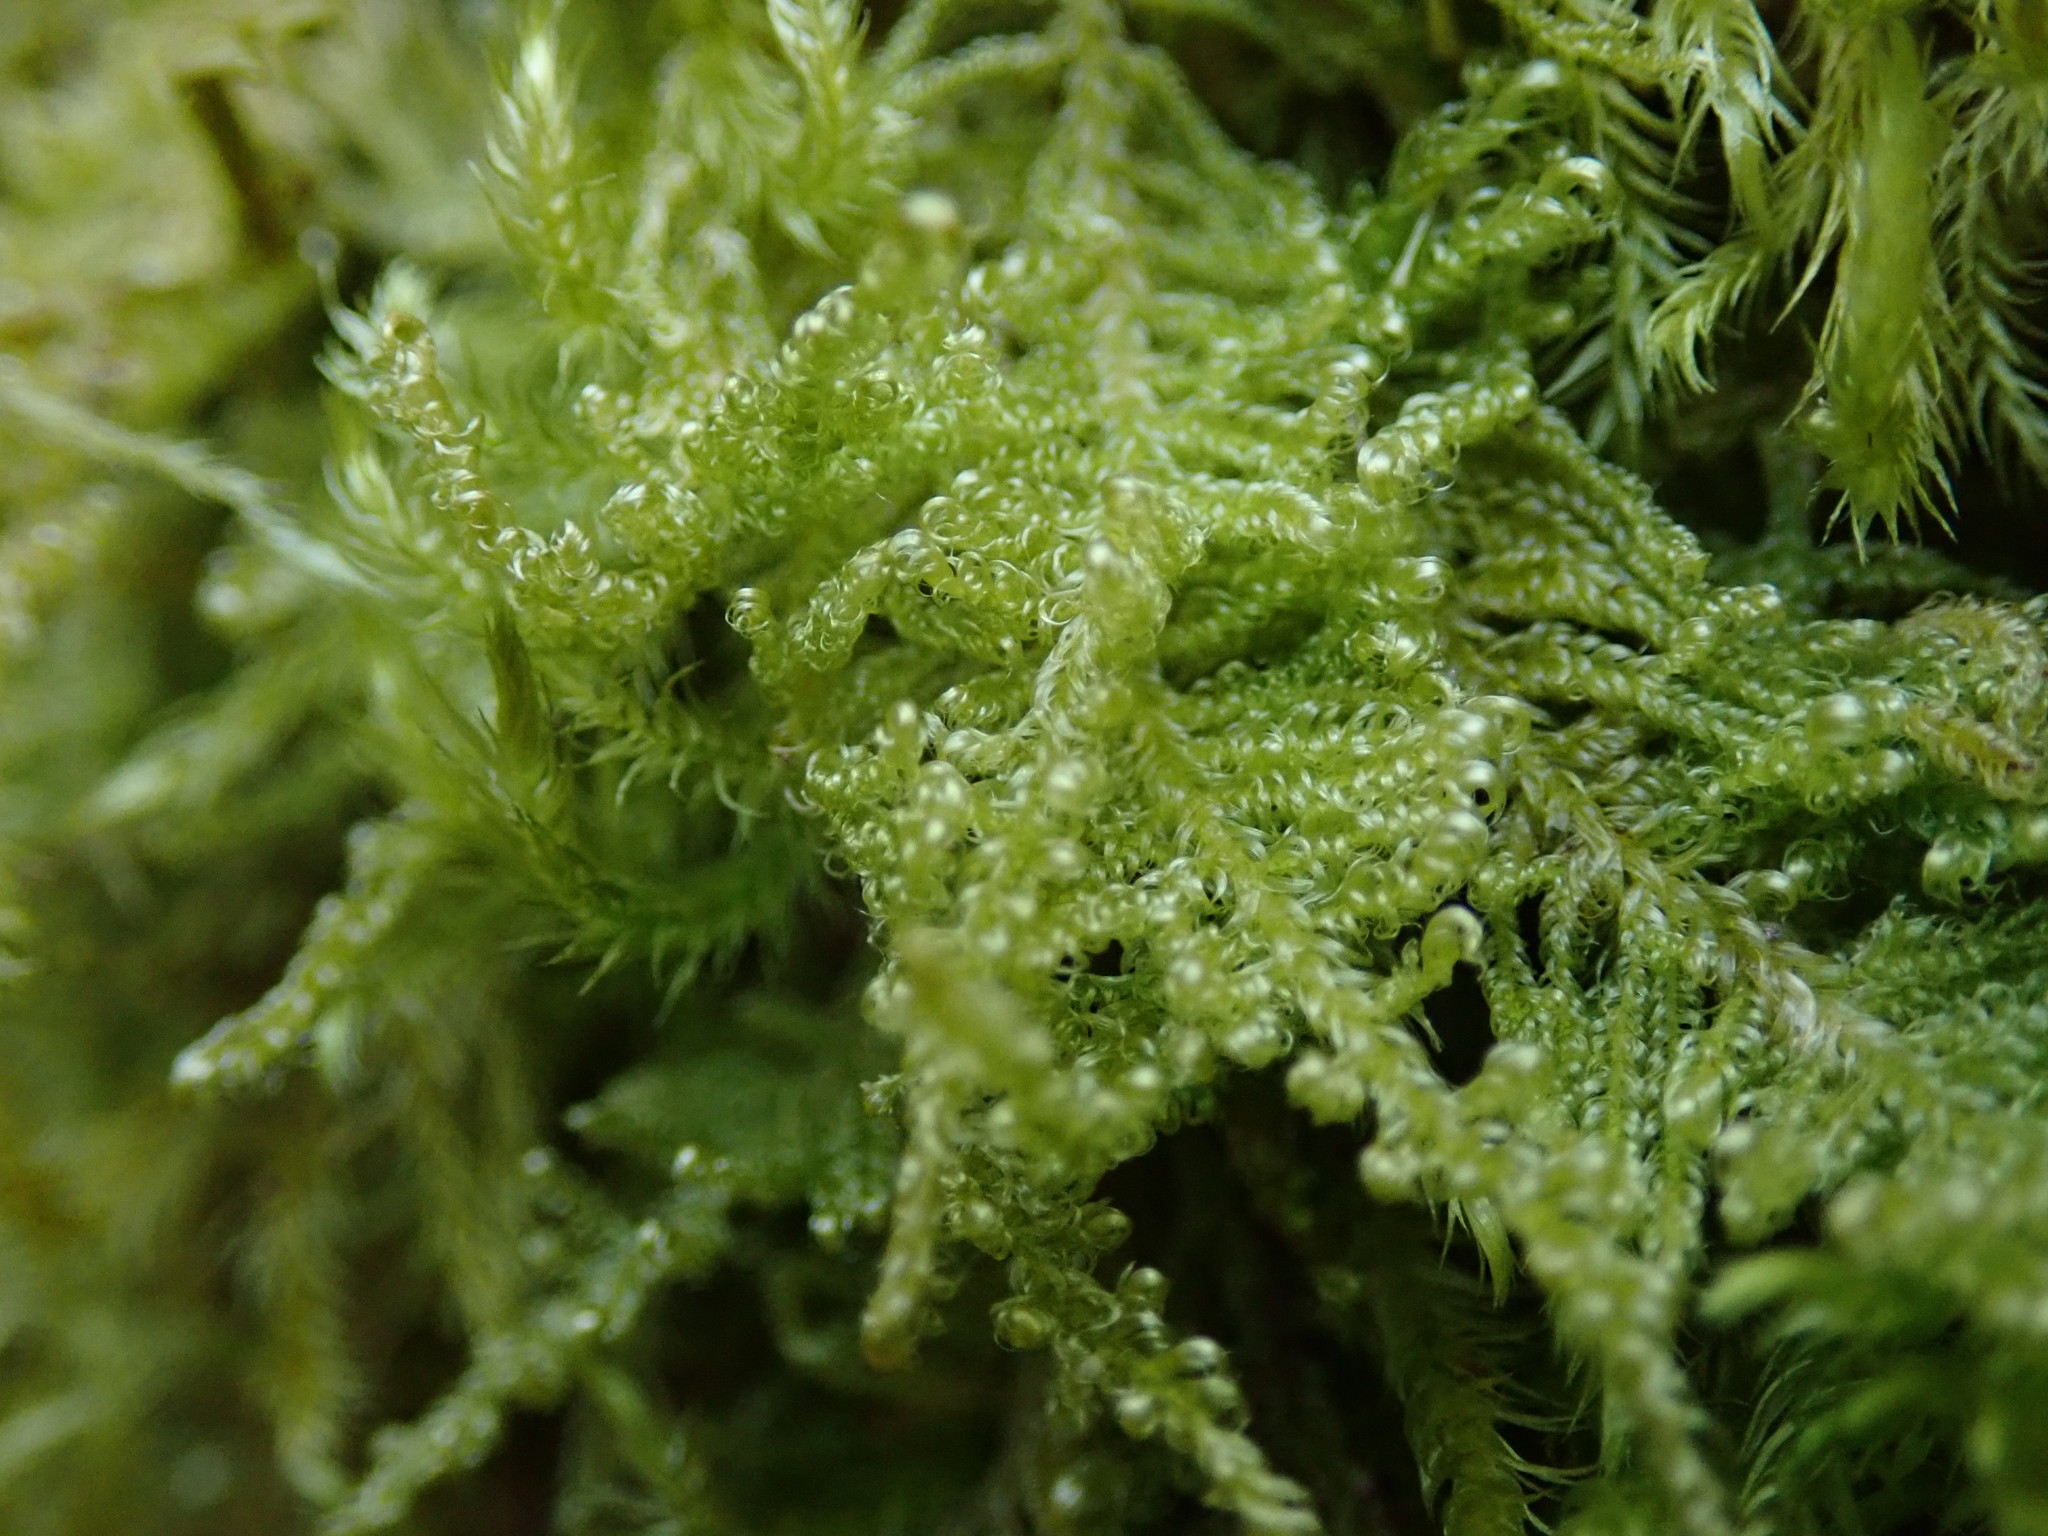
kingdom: Plantae
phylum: Bryophyta
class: Bryopsida
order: Hypnales
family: Stereodontaceae
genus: Stereodon
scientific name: Stereodon subimponens
